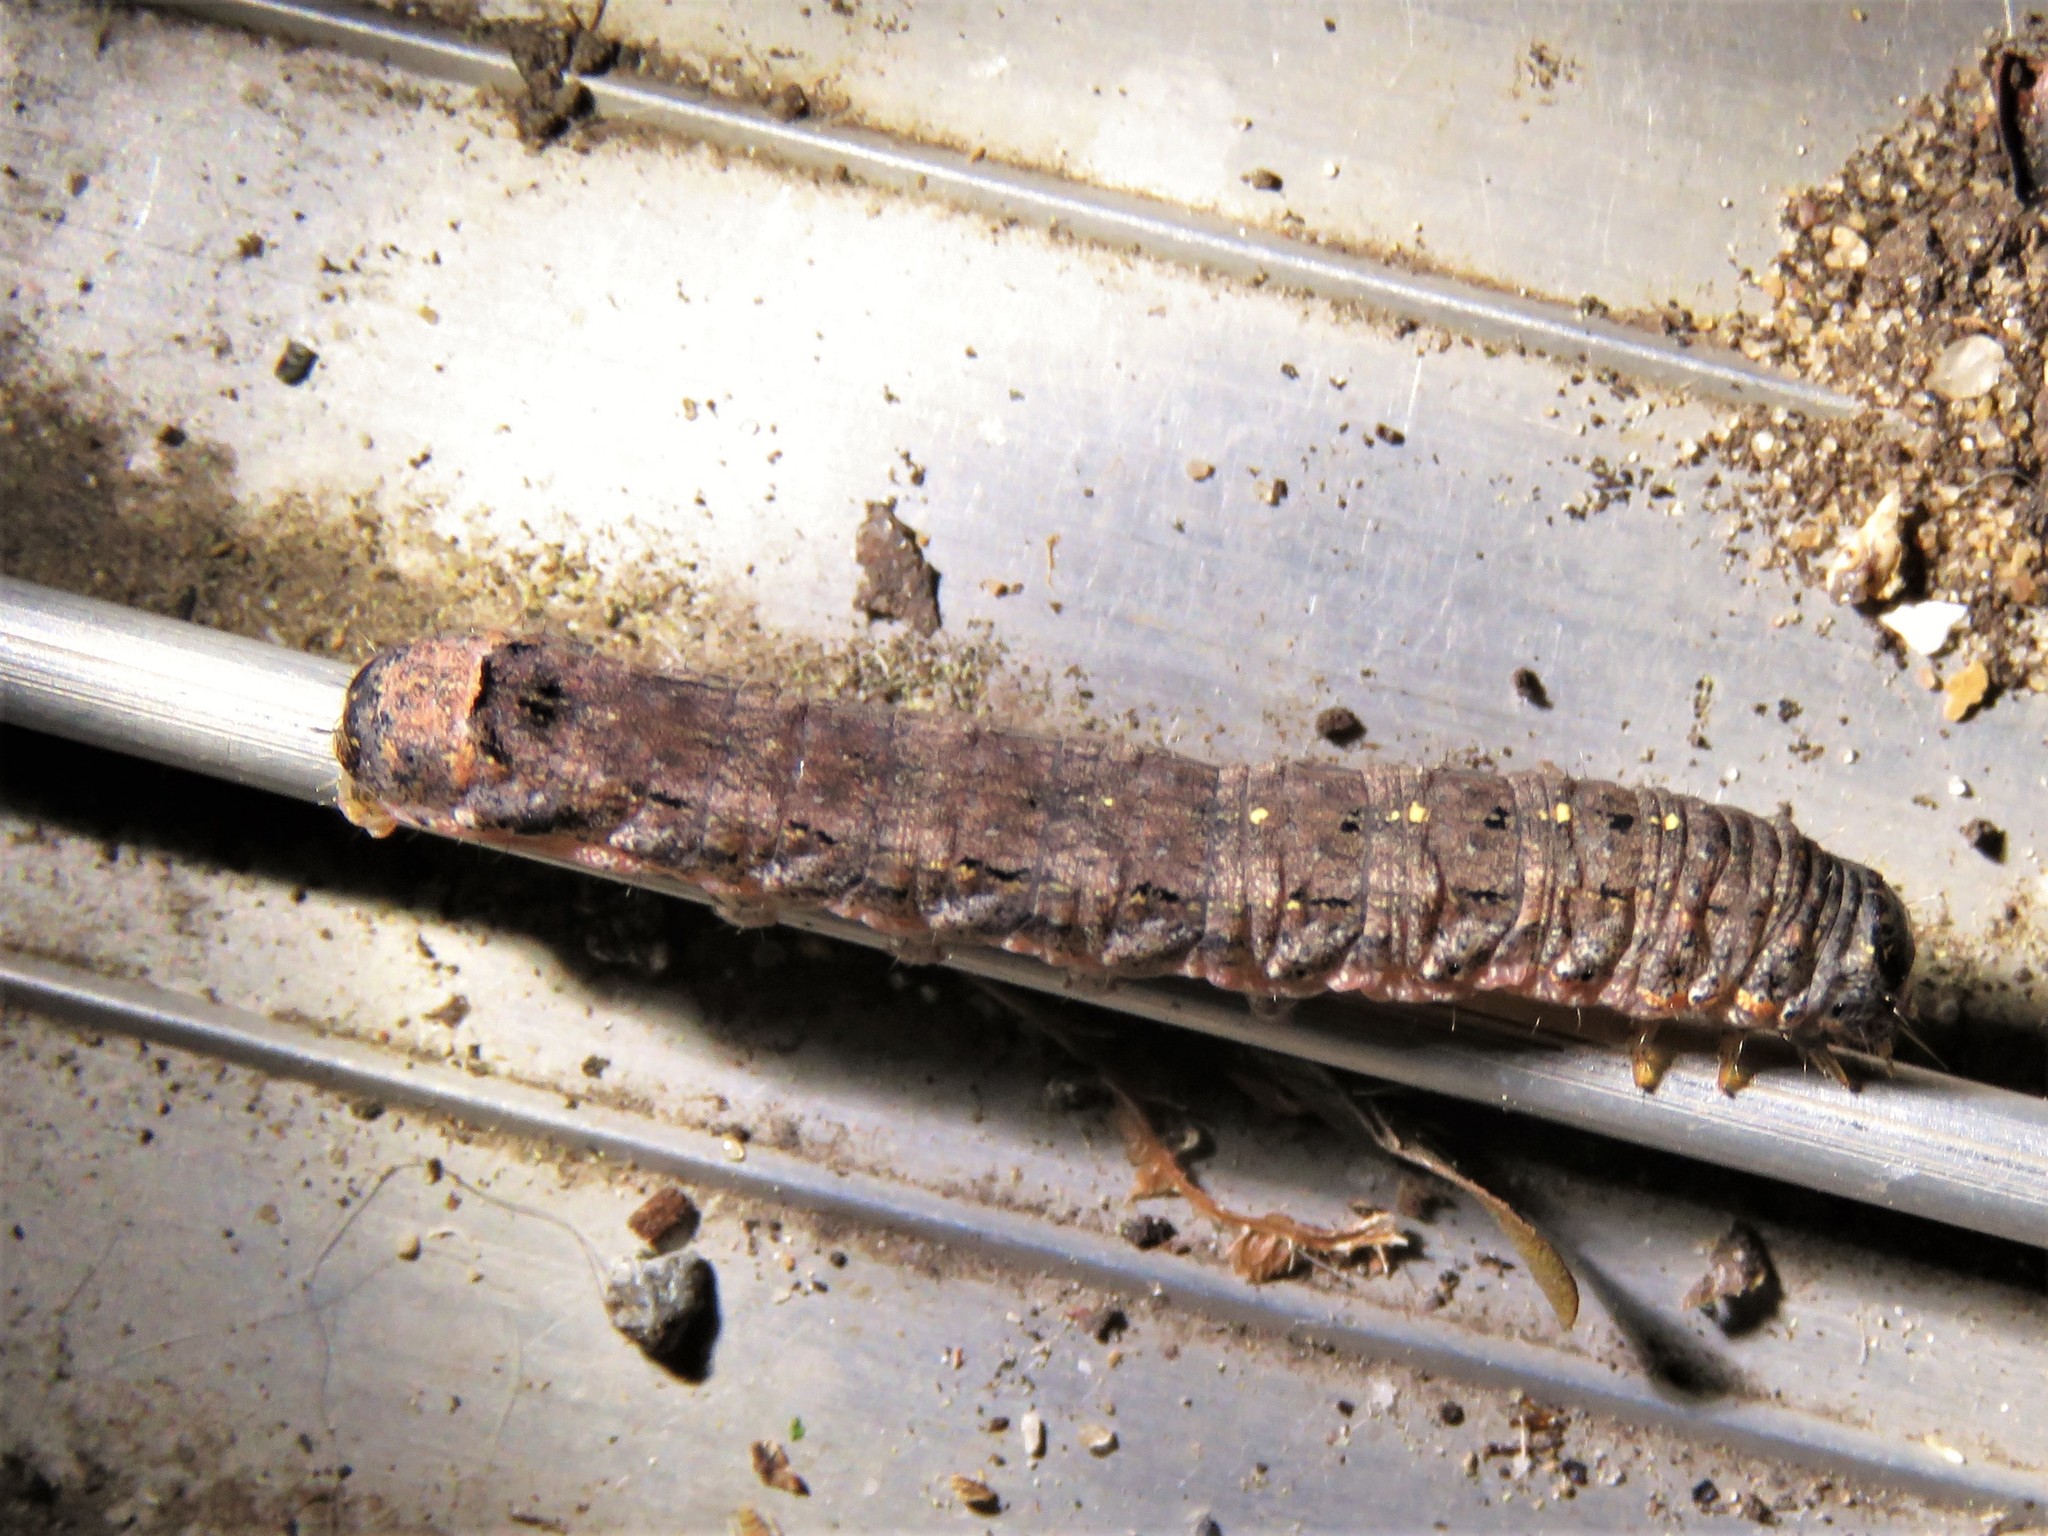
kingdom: Animalia
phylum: Arthropoda
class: Insecta
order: Lepidoptera
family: Noctuidae
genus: Peridroma
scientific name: Peridroma saucia
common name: Pearly underwing
